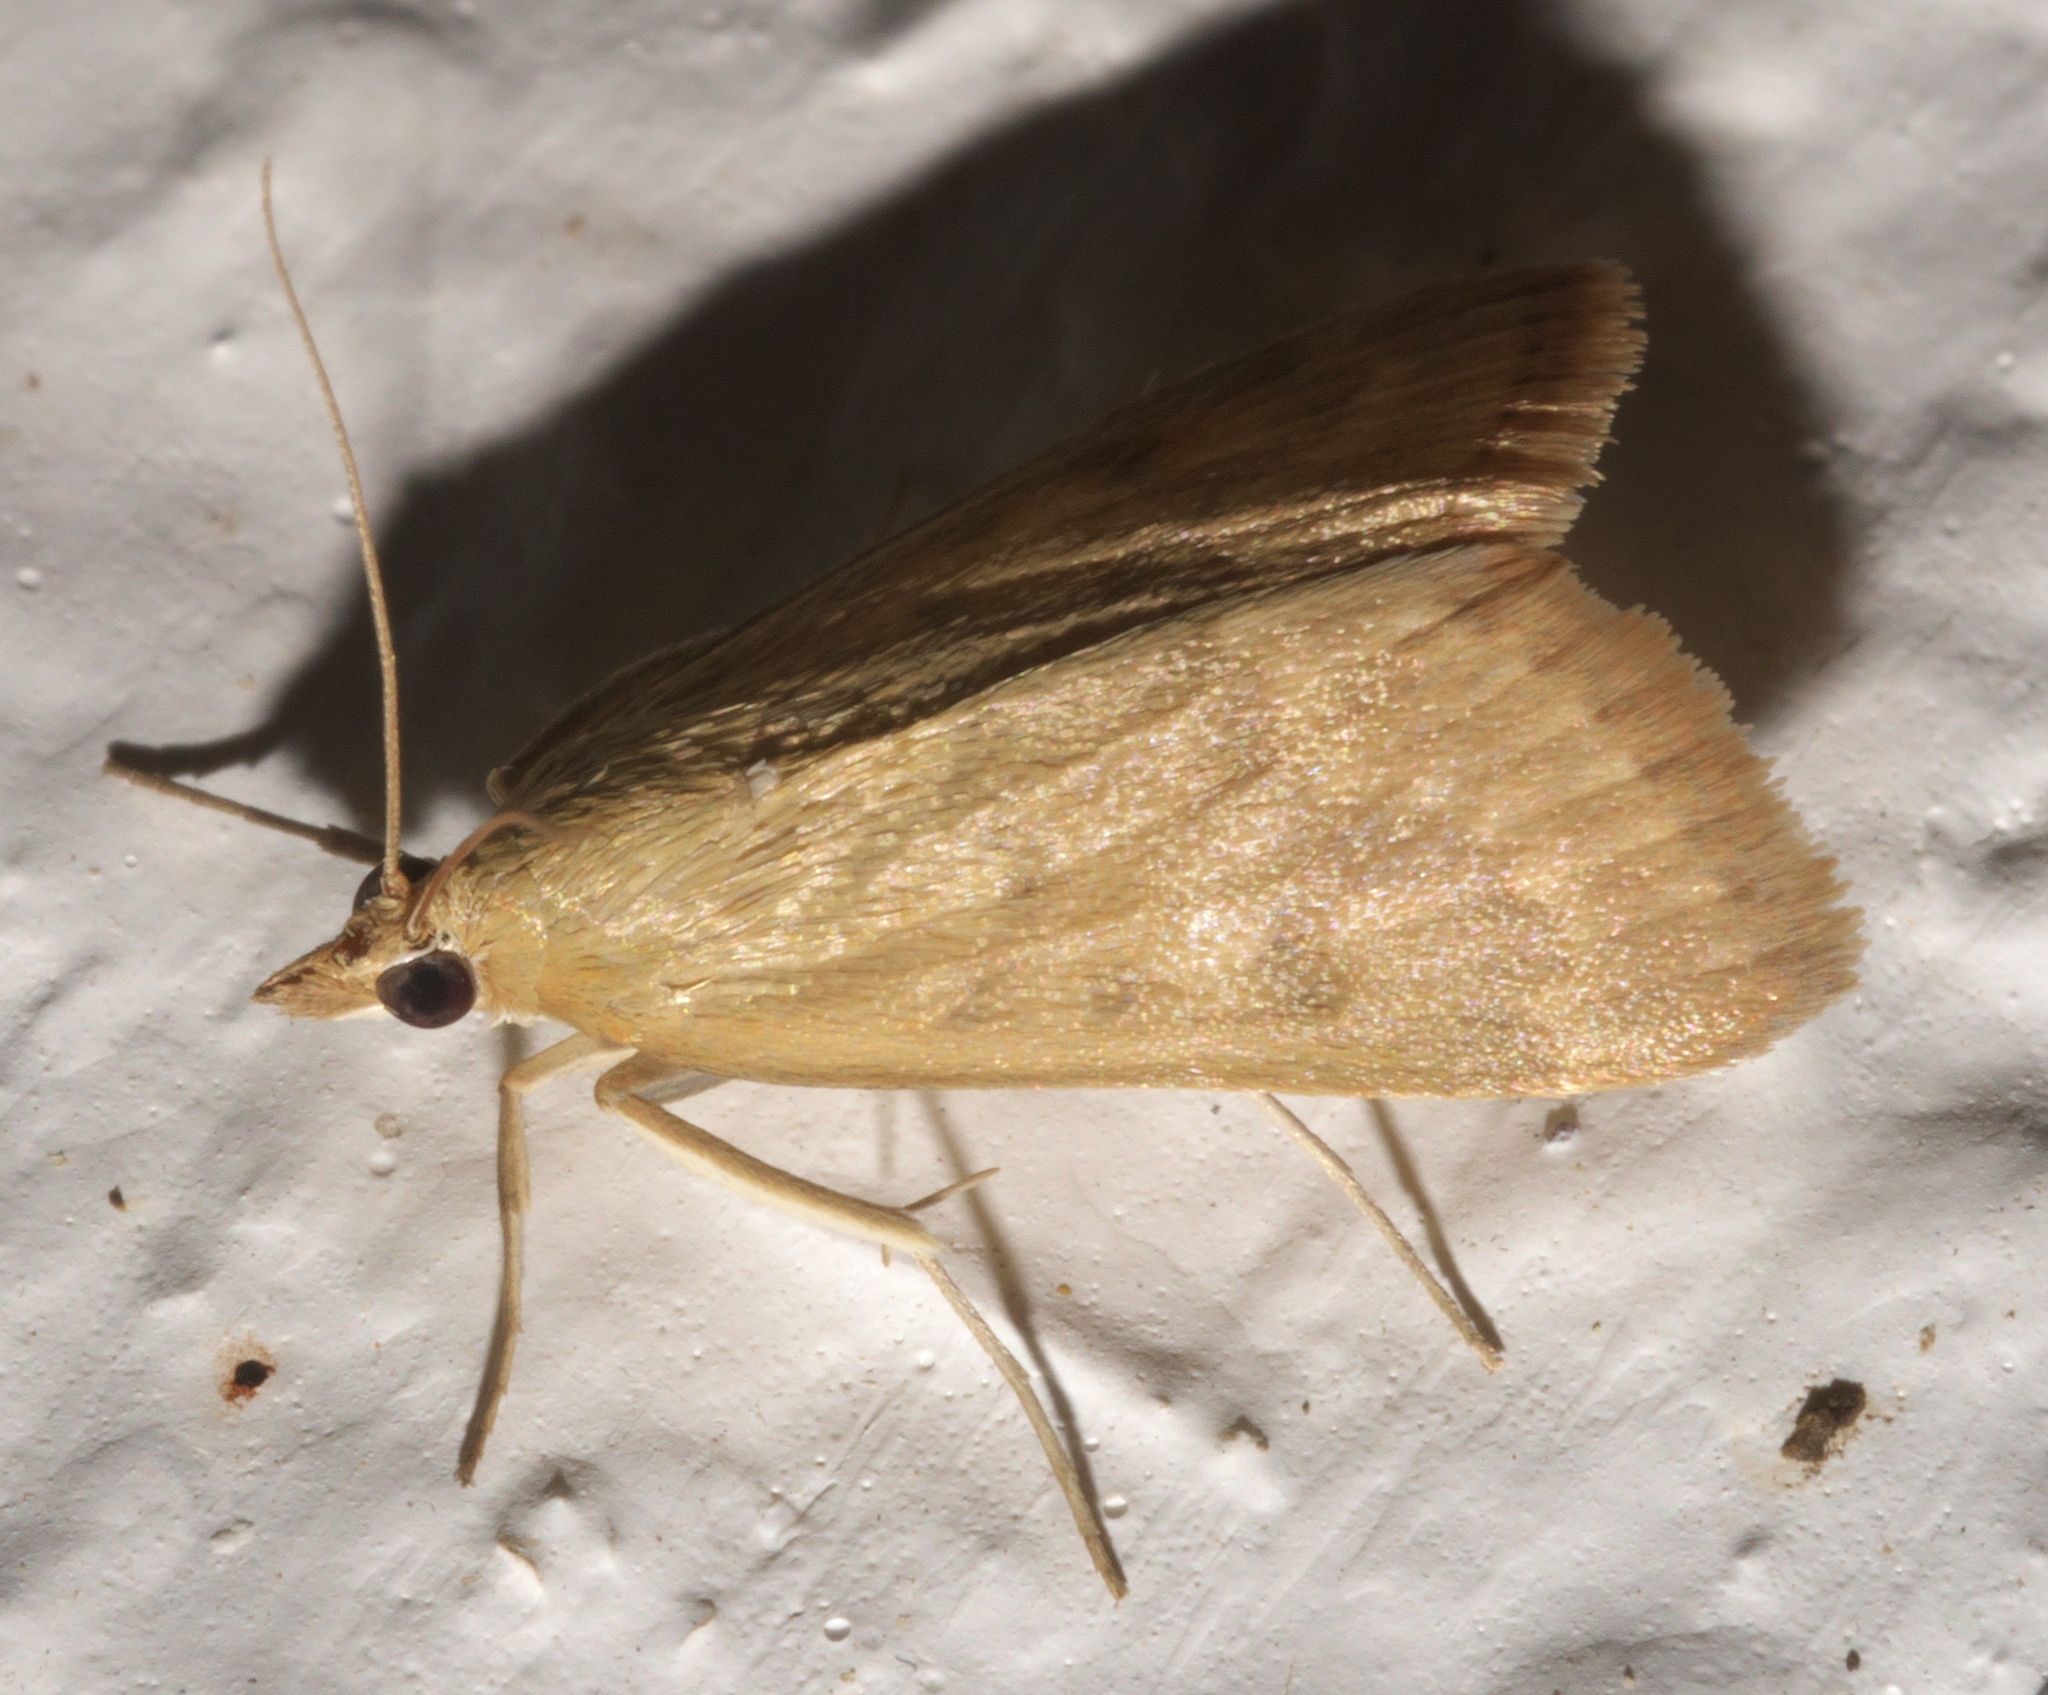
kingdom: Animalia
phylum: Arthropoda
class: Insecta
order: Lepidoptera
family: Crambidae
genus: Achyra
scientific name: Achyra rantalis
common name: Garden webworm
